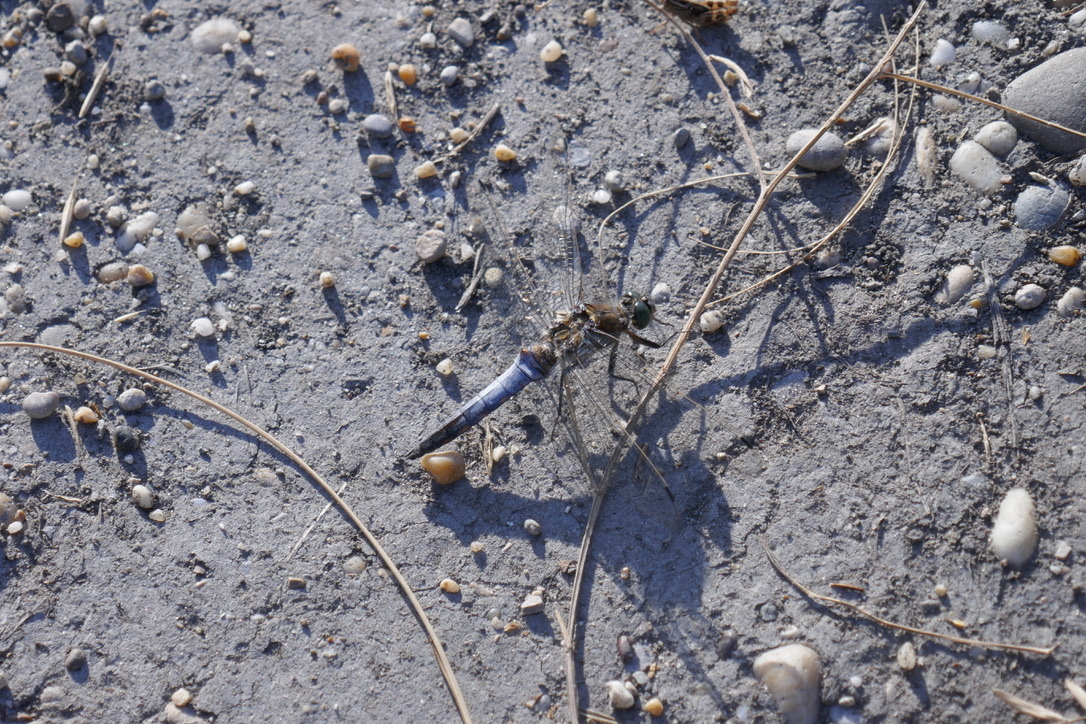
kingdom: Animalia
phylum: Arthropoda
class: Insecta
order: Odonata
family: Libellulidae
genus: Orthetrum
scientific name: Orthetrum cancellatum
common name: Black-tailed skimmer
